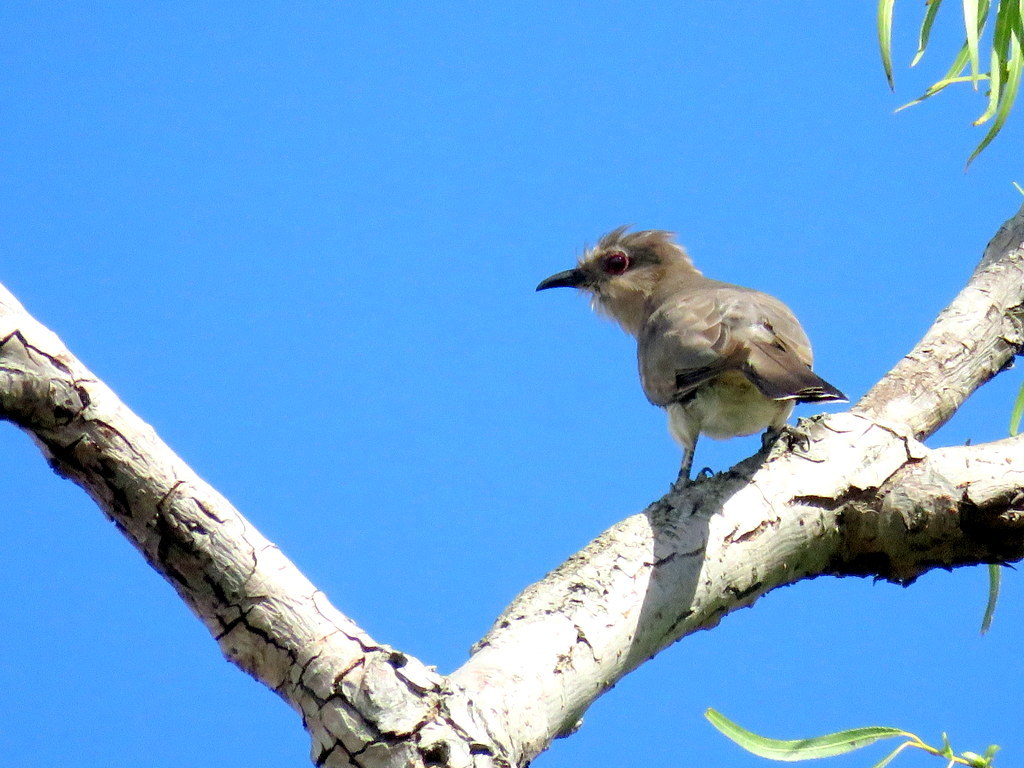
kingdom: Animalia
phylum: Chordata
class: Aves
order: Cuculiformes
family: Cuculidae
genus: Coccyzus
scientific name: Coccyzus cinereus
